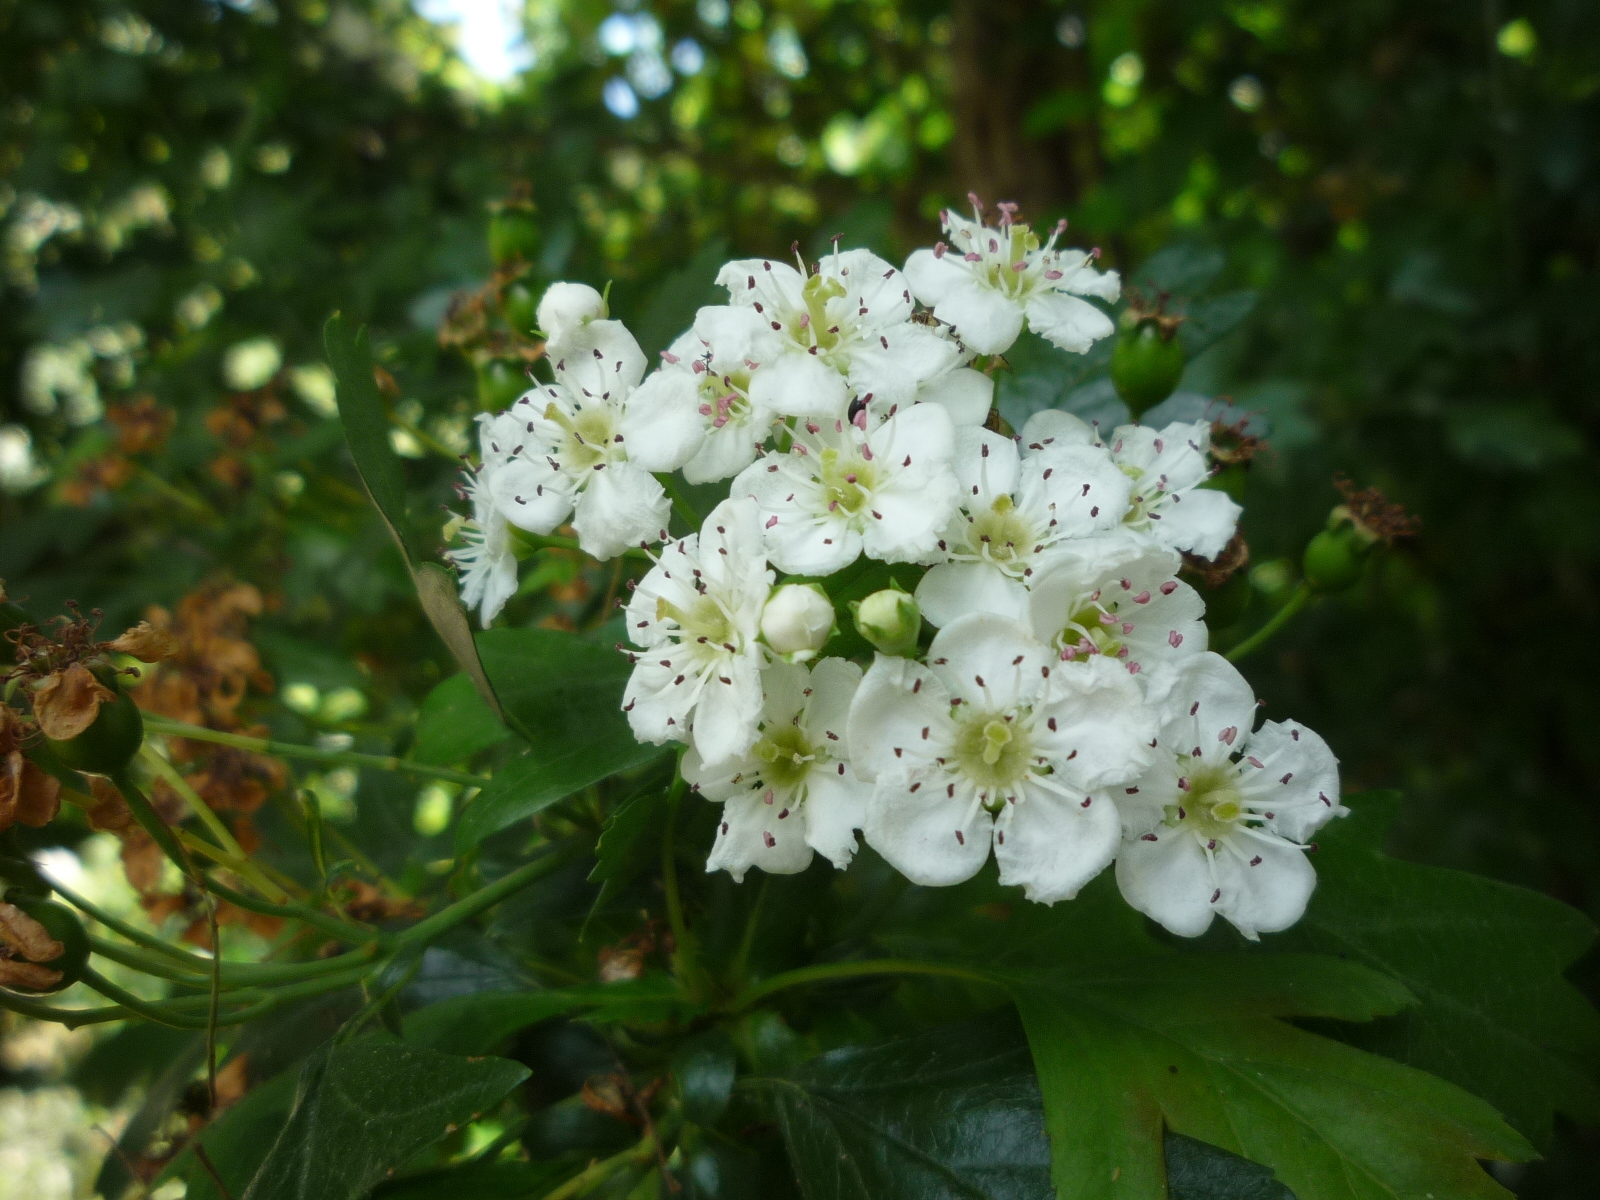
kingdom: Plantae
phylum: Tracheophyta
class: Magnoliopsida
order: Rosales
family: Rosaceae
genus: Crataegus
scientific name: Crataegus monogyna
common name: Hawthorn
